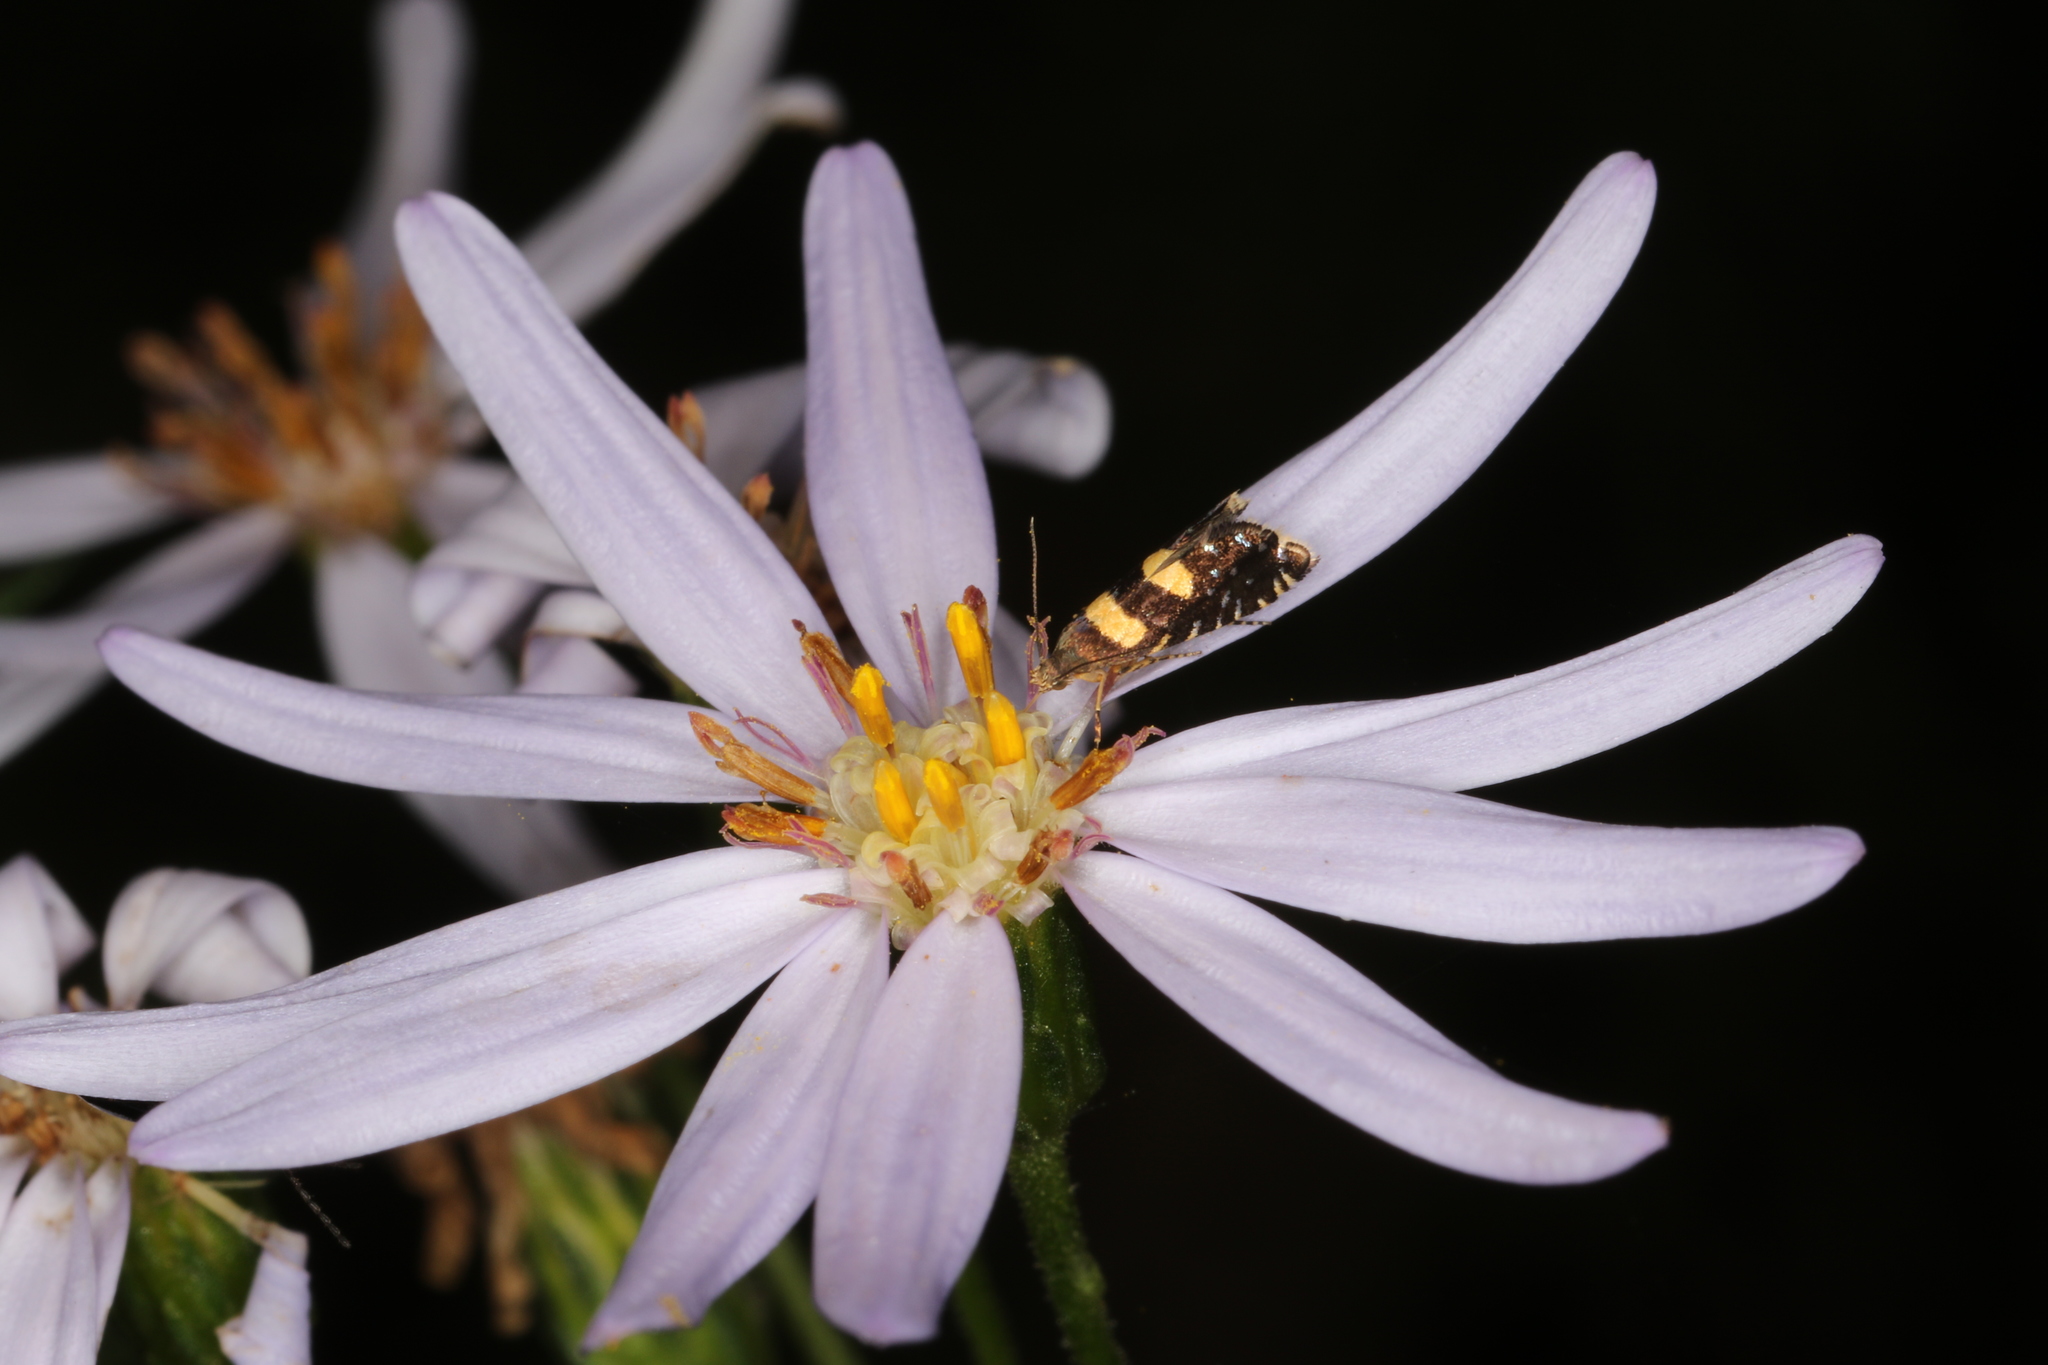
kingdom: Animalia
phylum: Arthropoda
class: Insecta
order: Lepidoptera
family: Glyphipterigidae
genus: Glyphipterix
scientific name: Glyphipterix chrysoplanetis
